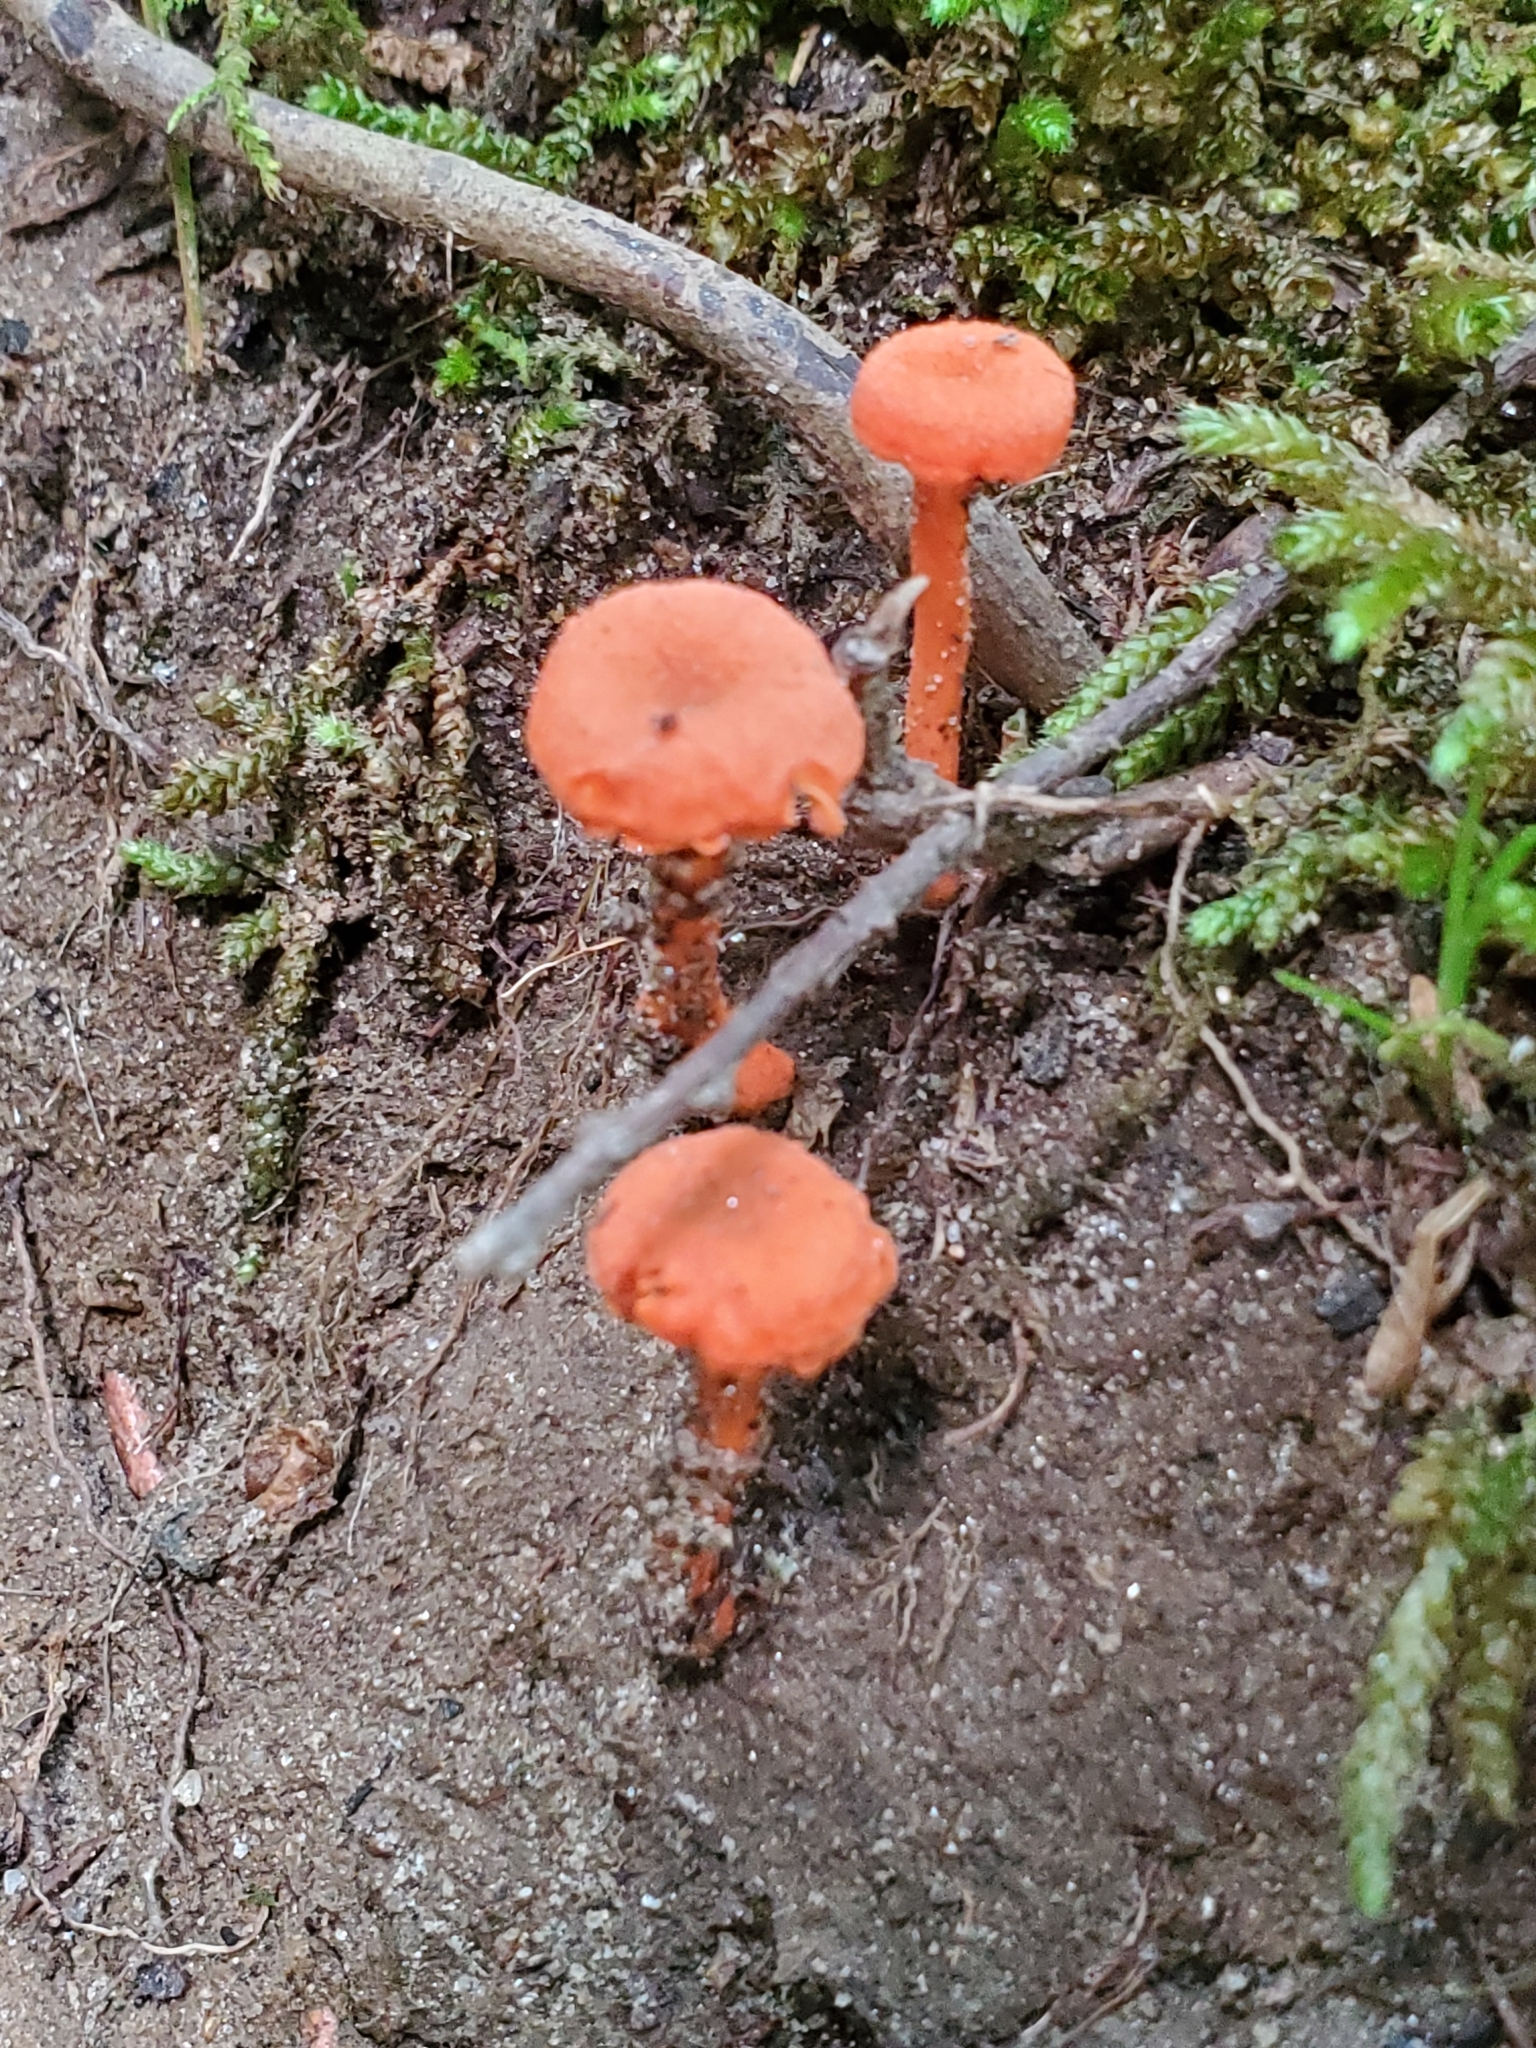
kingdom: Fungi
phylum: Basidiomycota
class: Agaricomycetes
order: Cantharellales
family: Hydnaceae
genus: Cantharellus
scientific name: Cantharellus cinnabarinus
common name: Cinnabar chanterelle
